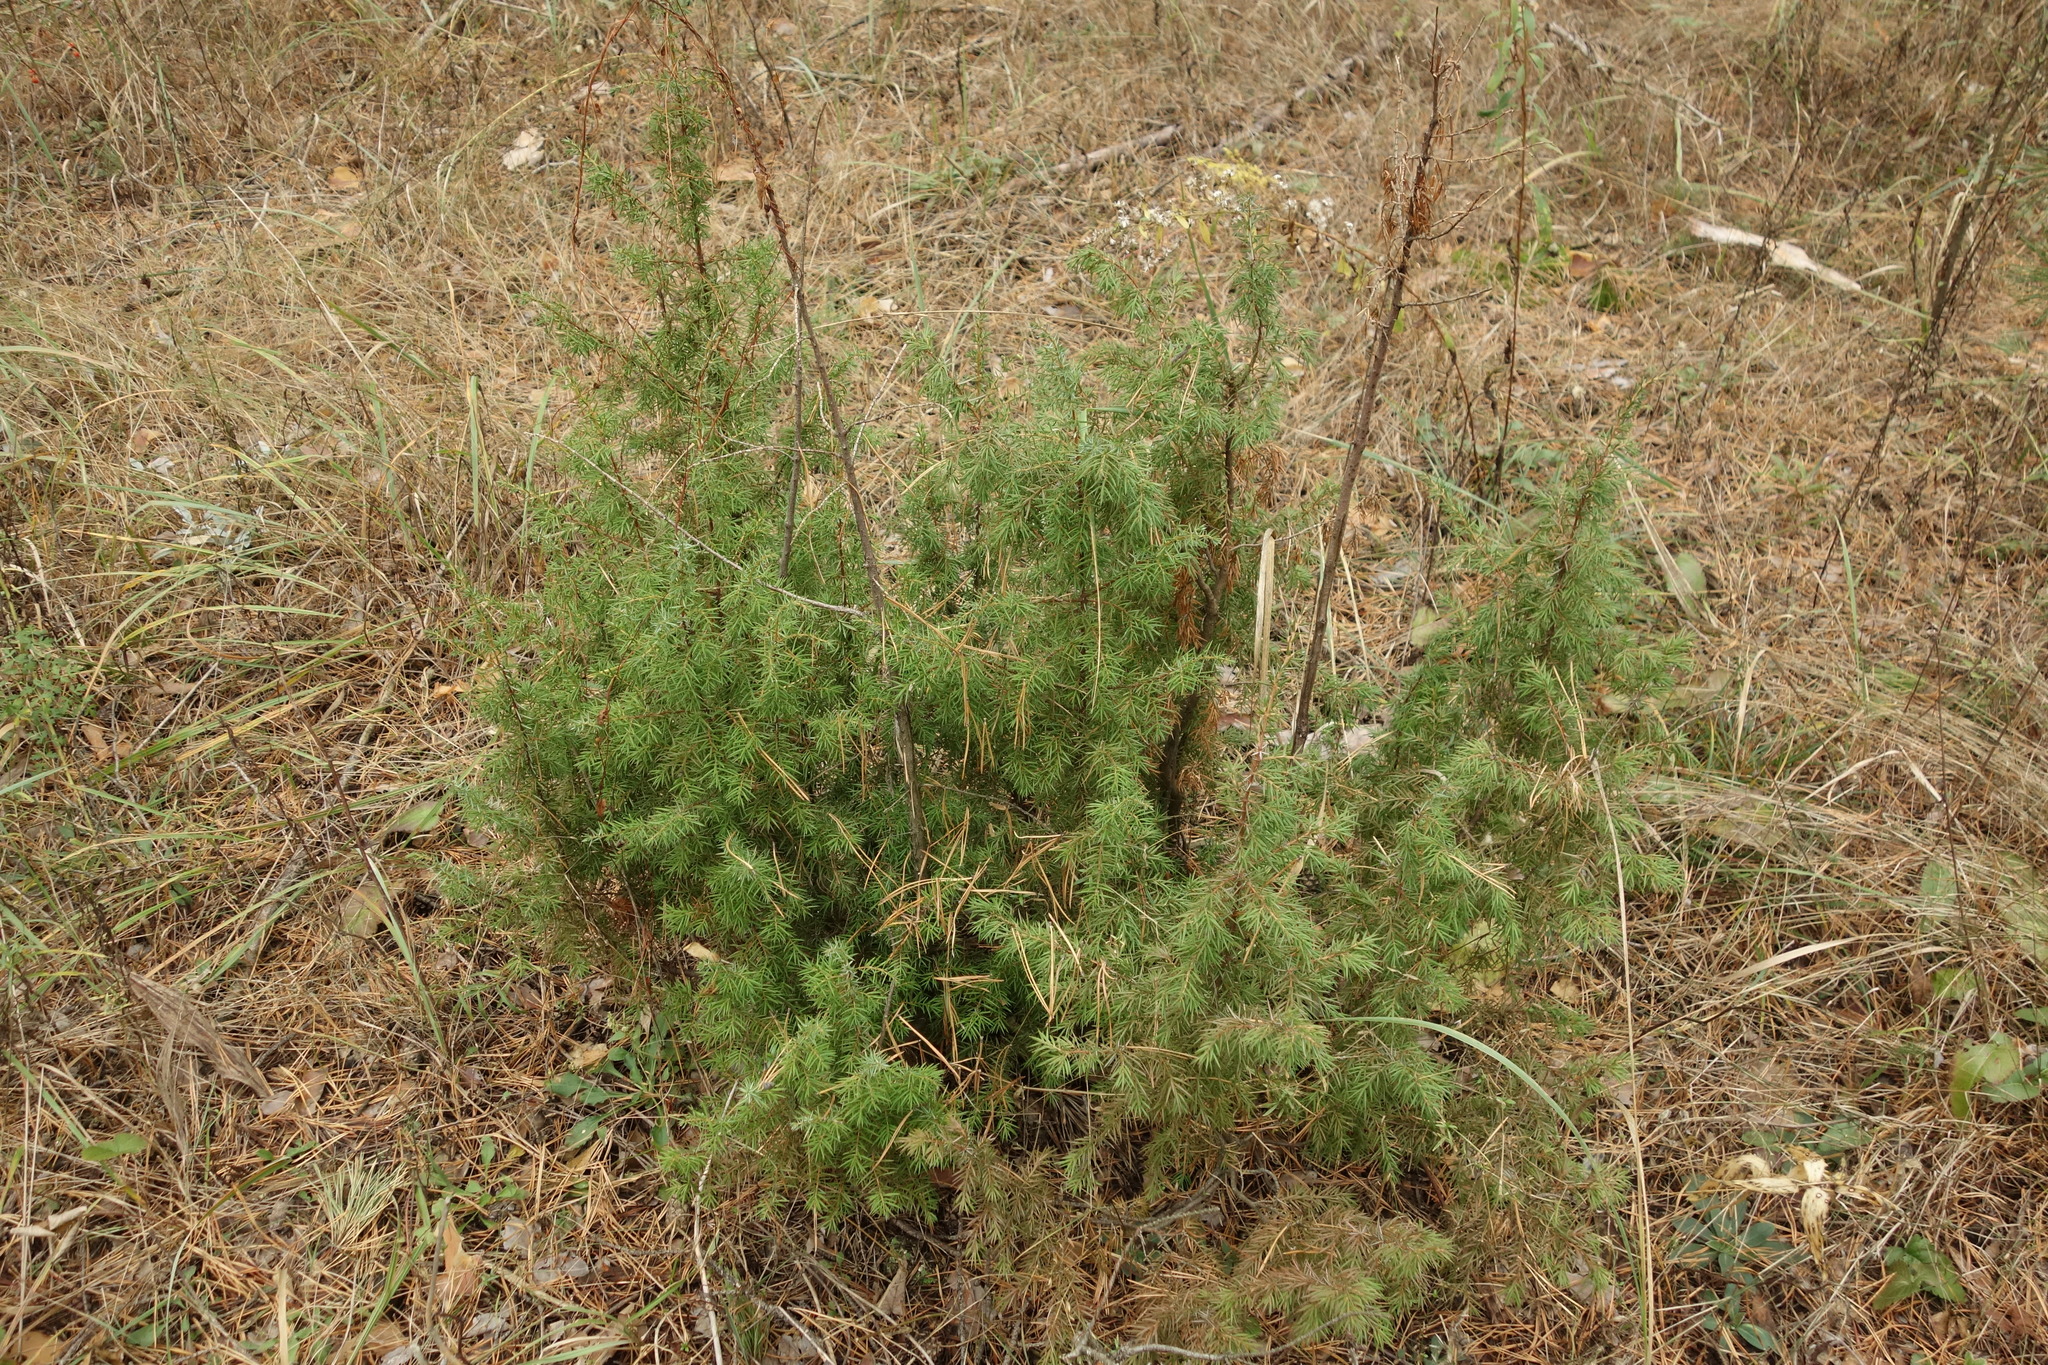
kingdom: Plantae
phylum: Tracheophyta
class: Pinopsida
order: Pinales
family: Cupressaceae
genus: Juniperus
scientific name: Juniperus communis
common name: Common juniper
